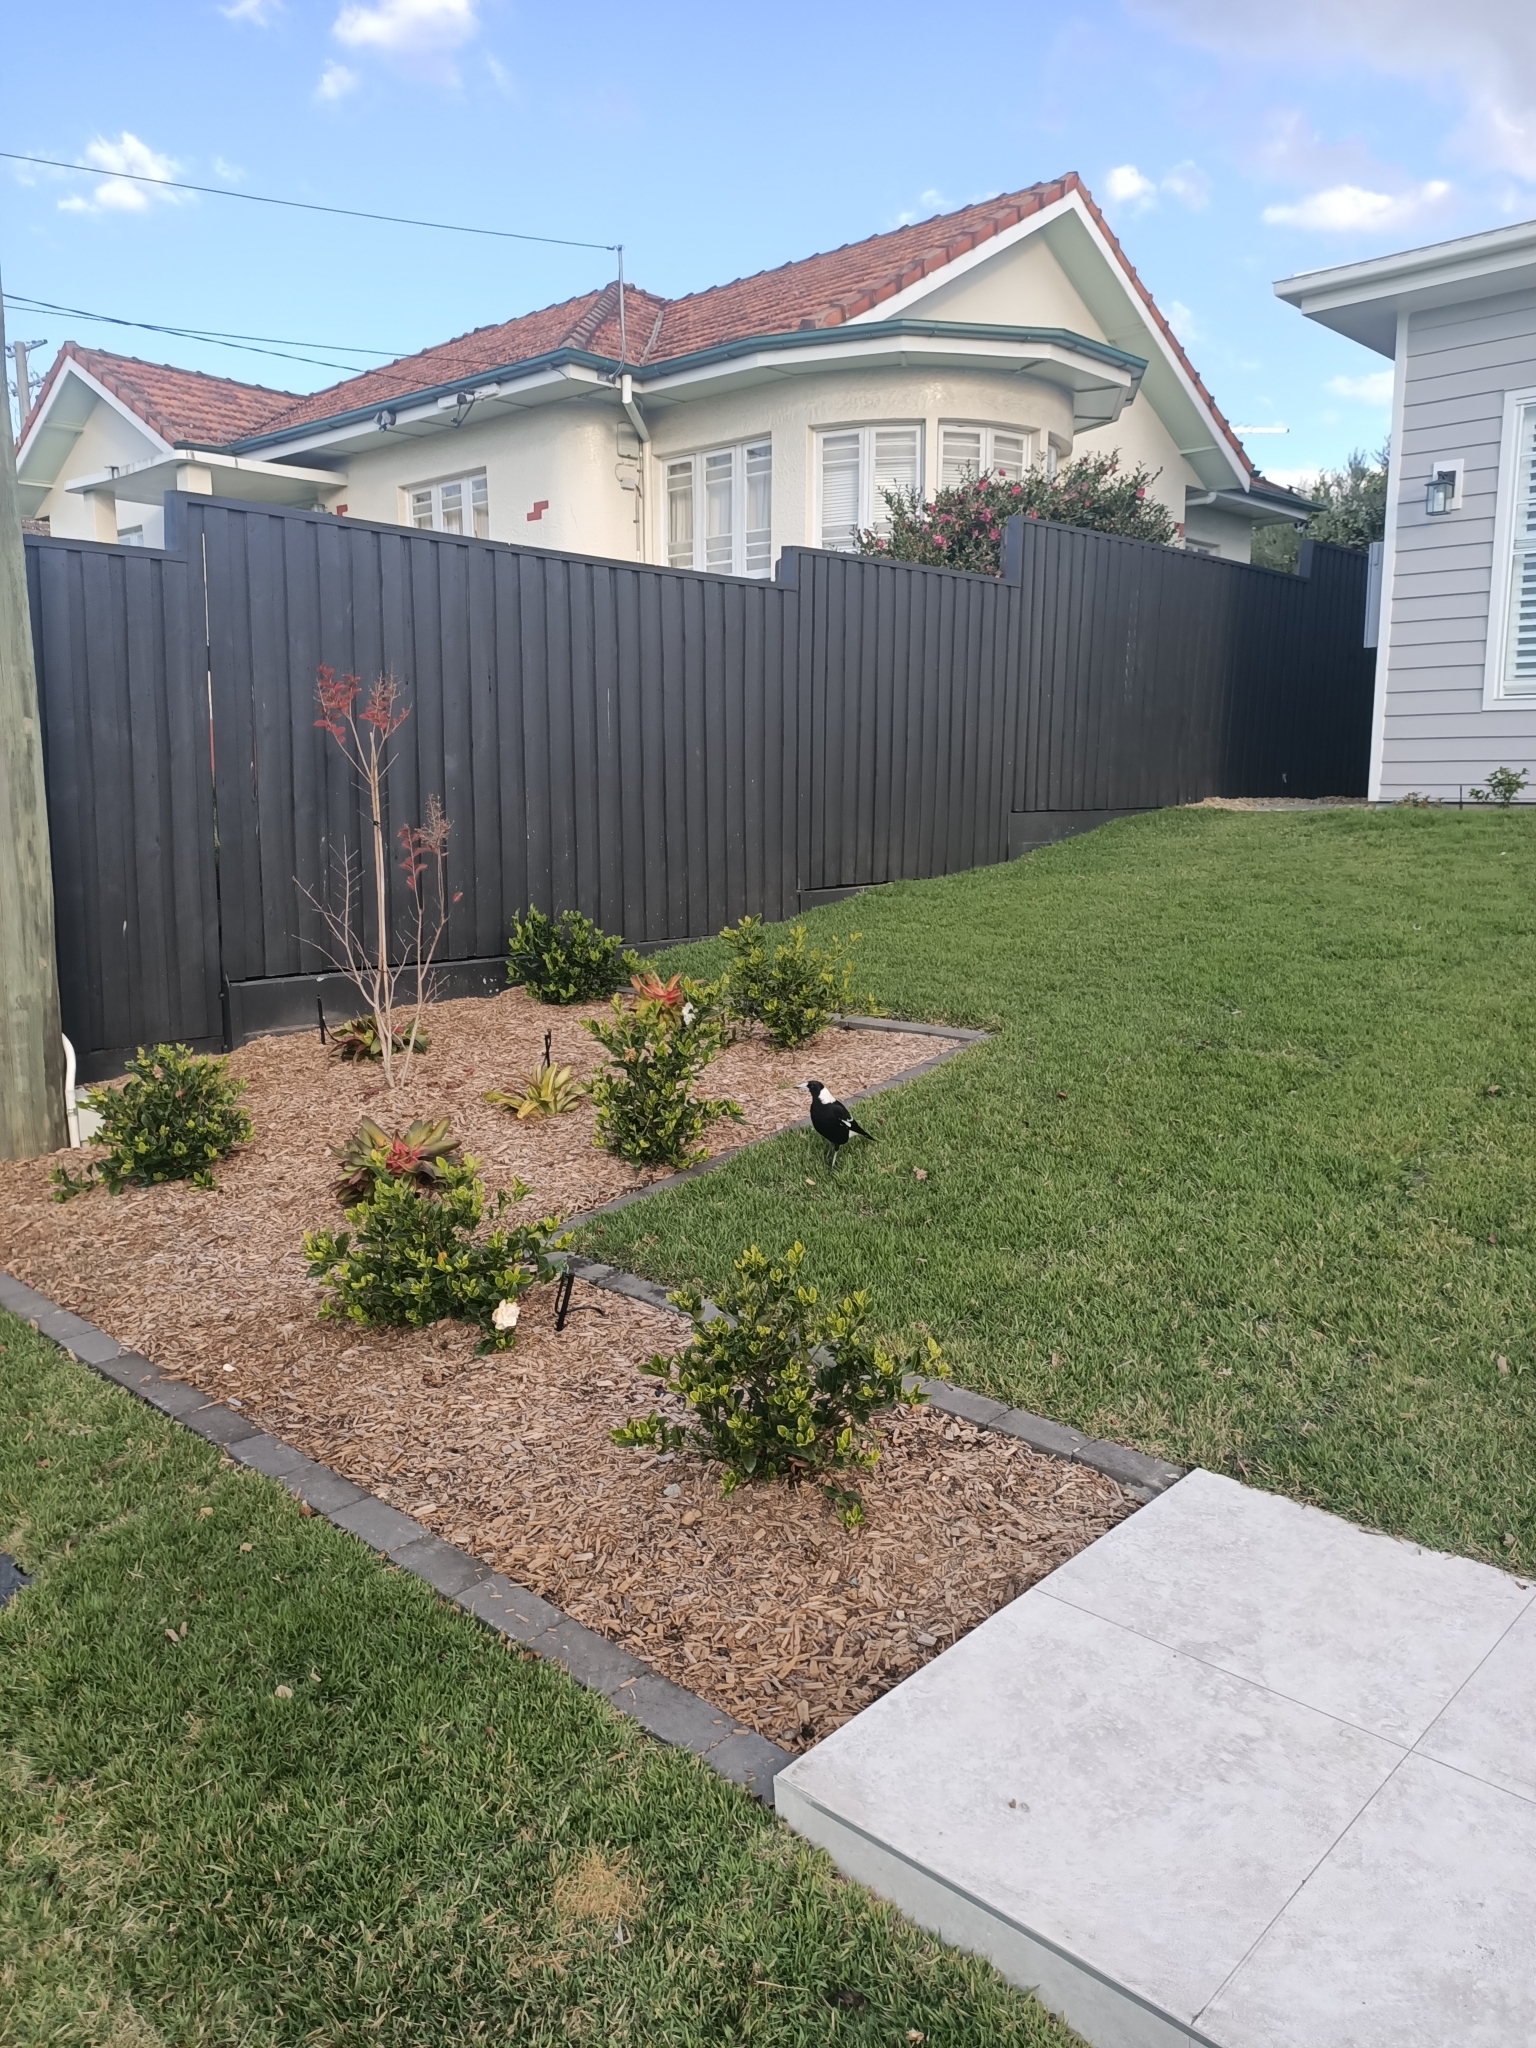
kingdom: Animalia
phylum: Chordata
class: Aves
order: Passeriformes
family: Cracticidae
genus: Gymnorhina
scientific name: Gymnorhina tibicen
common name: Australian magpie
